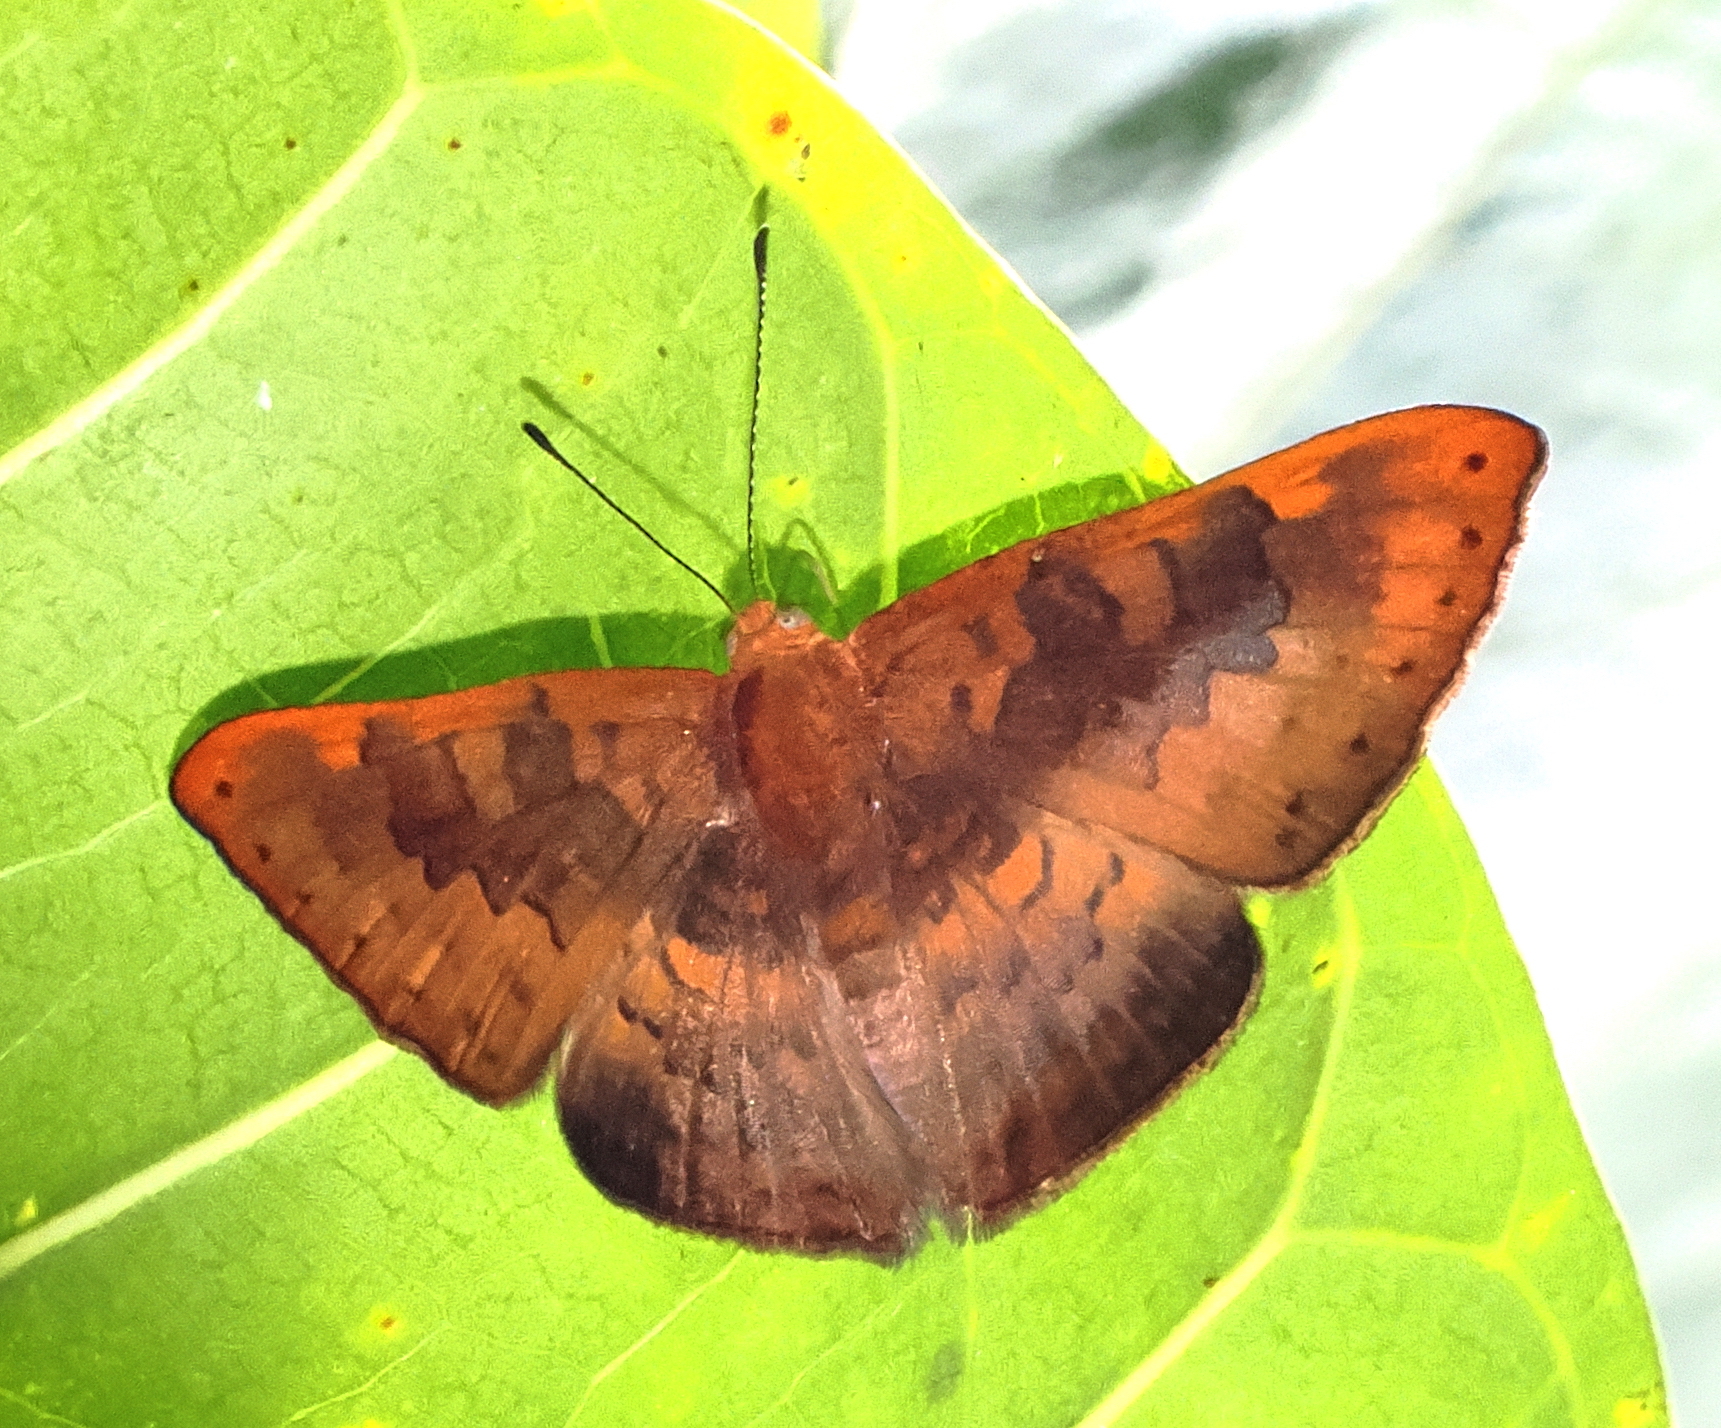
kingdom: Animalia
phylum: Arthropoda
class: Insecta
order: Lepidoptera
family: Lycaenidae
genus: Emesis
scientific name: Emesis brimo
